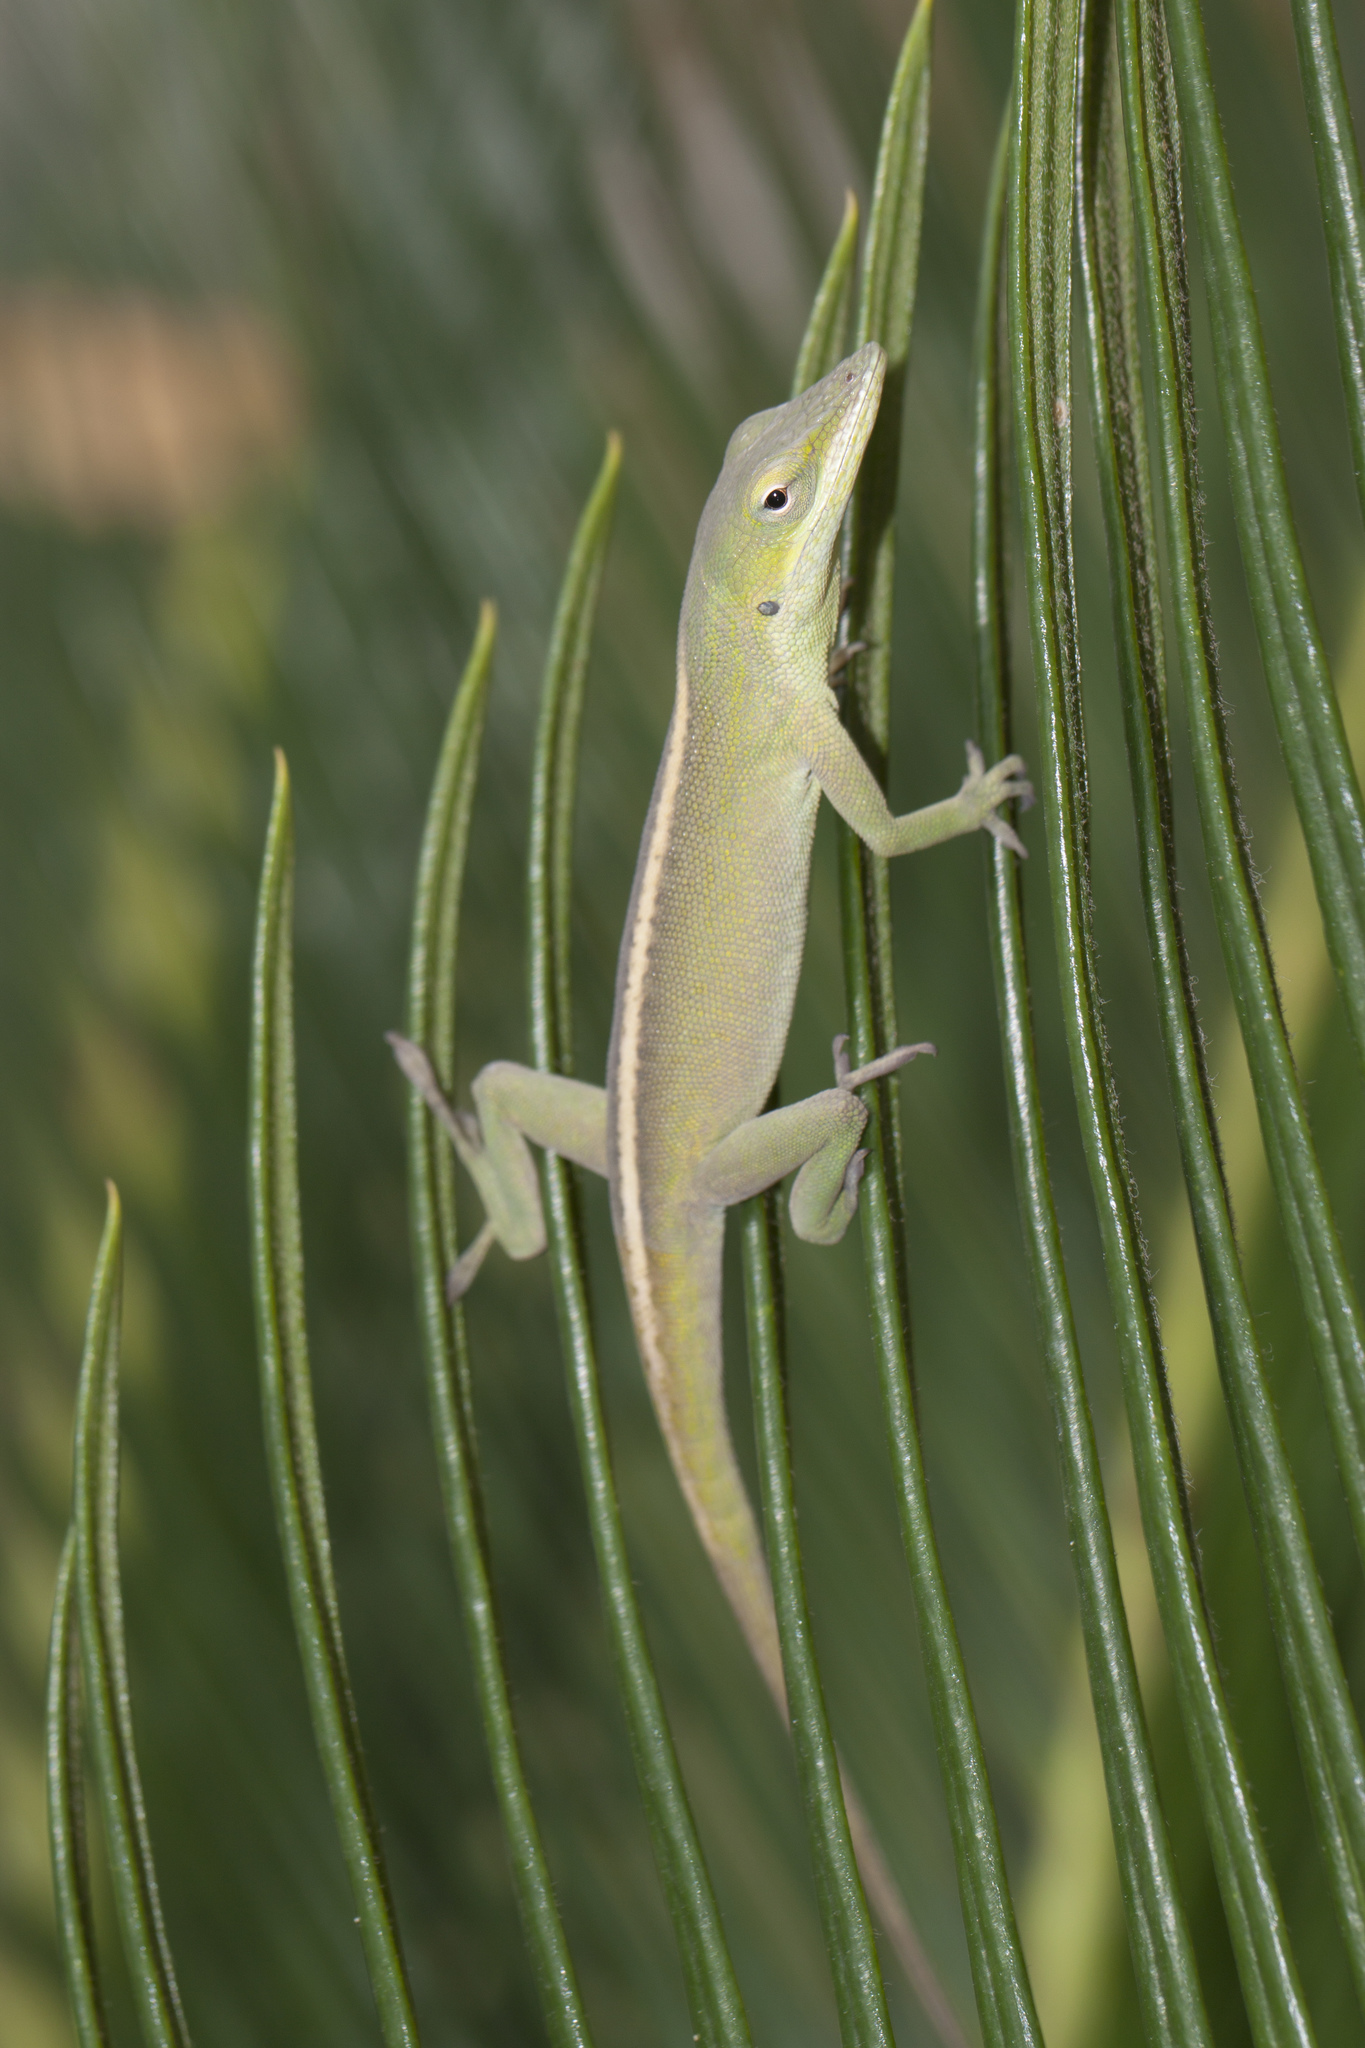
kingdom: Animalia
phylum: Chordata
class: Squamata
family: Dactyloidae
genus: Anolis
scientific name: Anolis porcatus
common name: Cuban green anole
